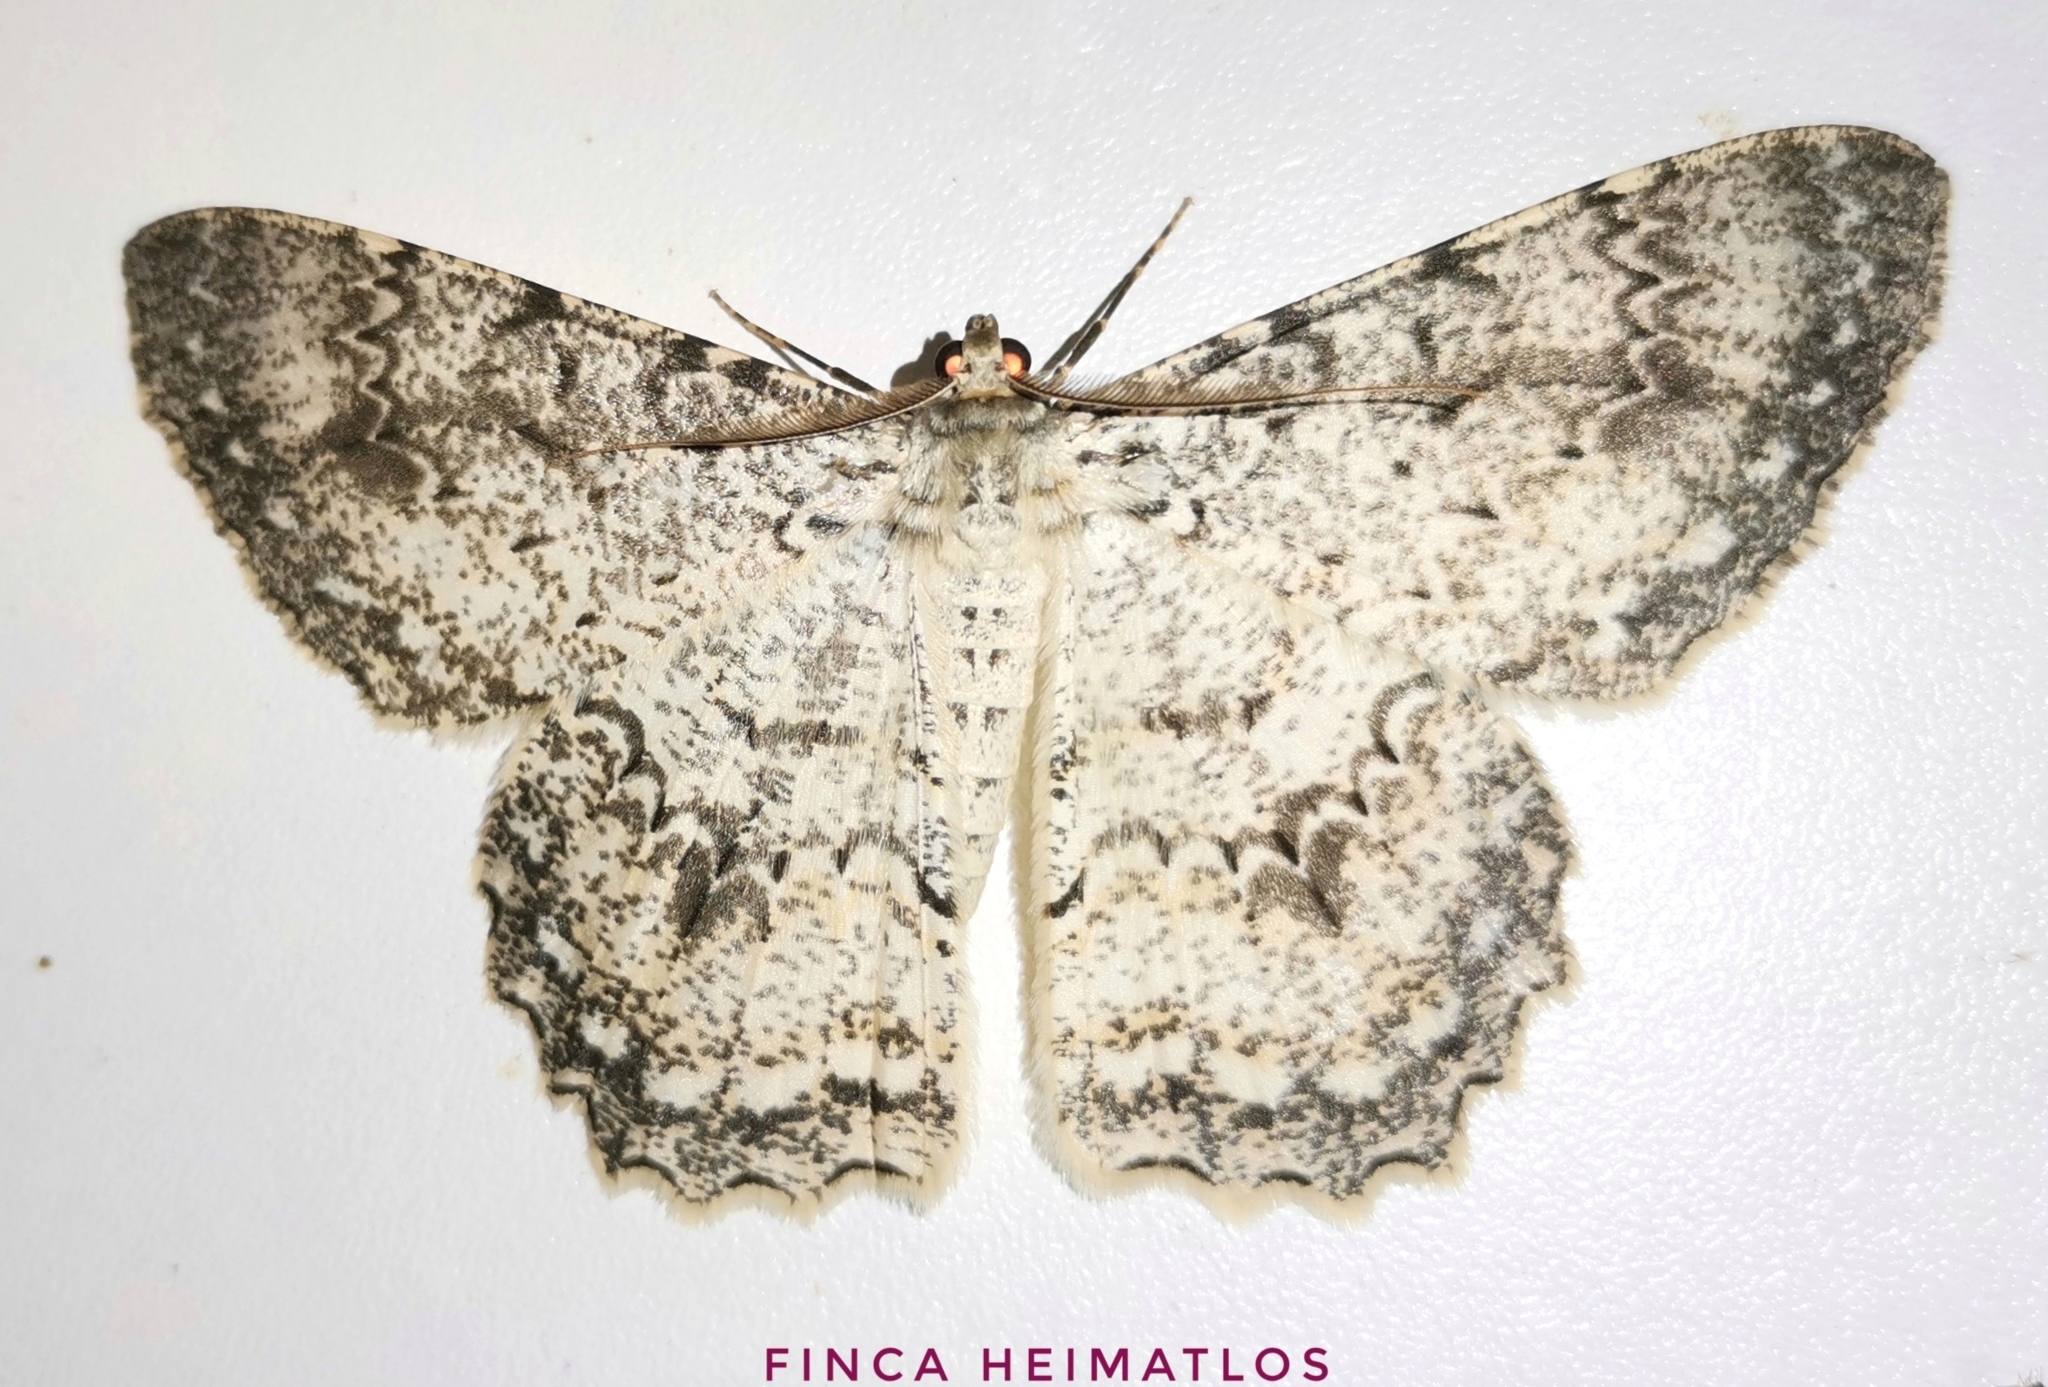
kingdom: Animalia
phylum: Arthropoda
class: Insecta
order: Lepidoptera
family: Geometridae
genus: Epimecis
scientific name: Epimecis marcida
